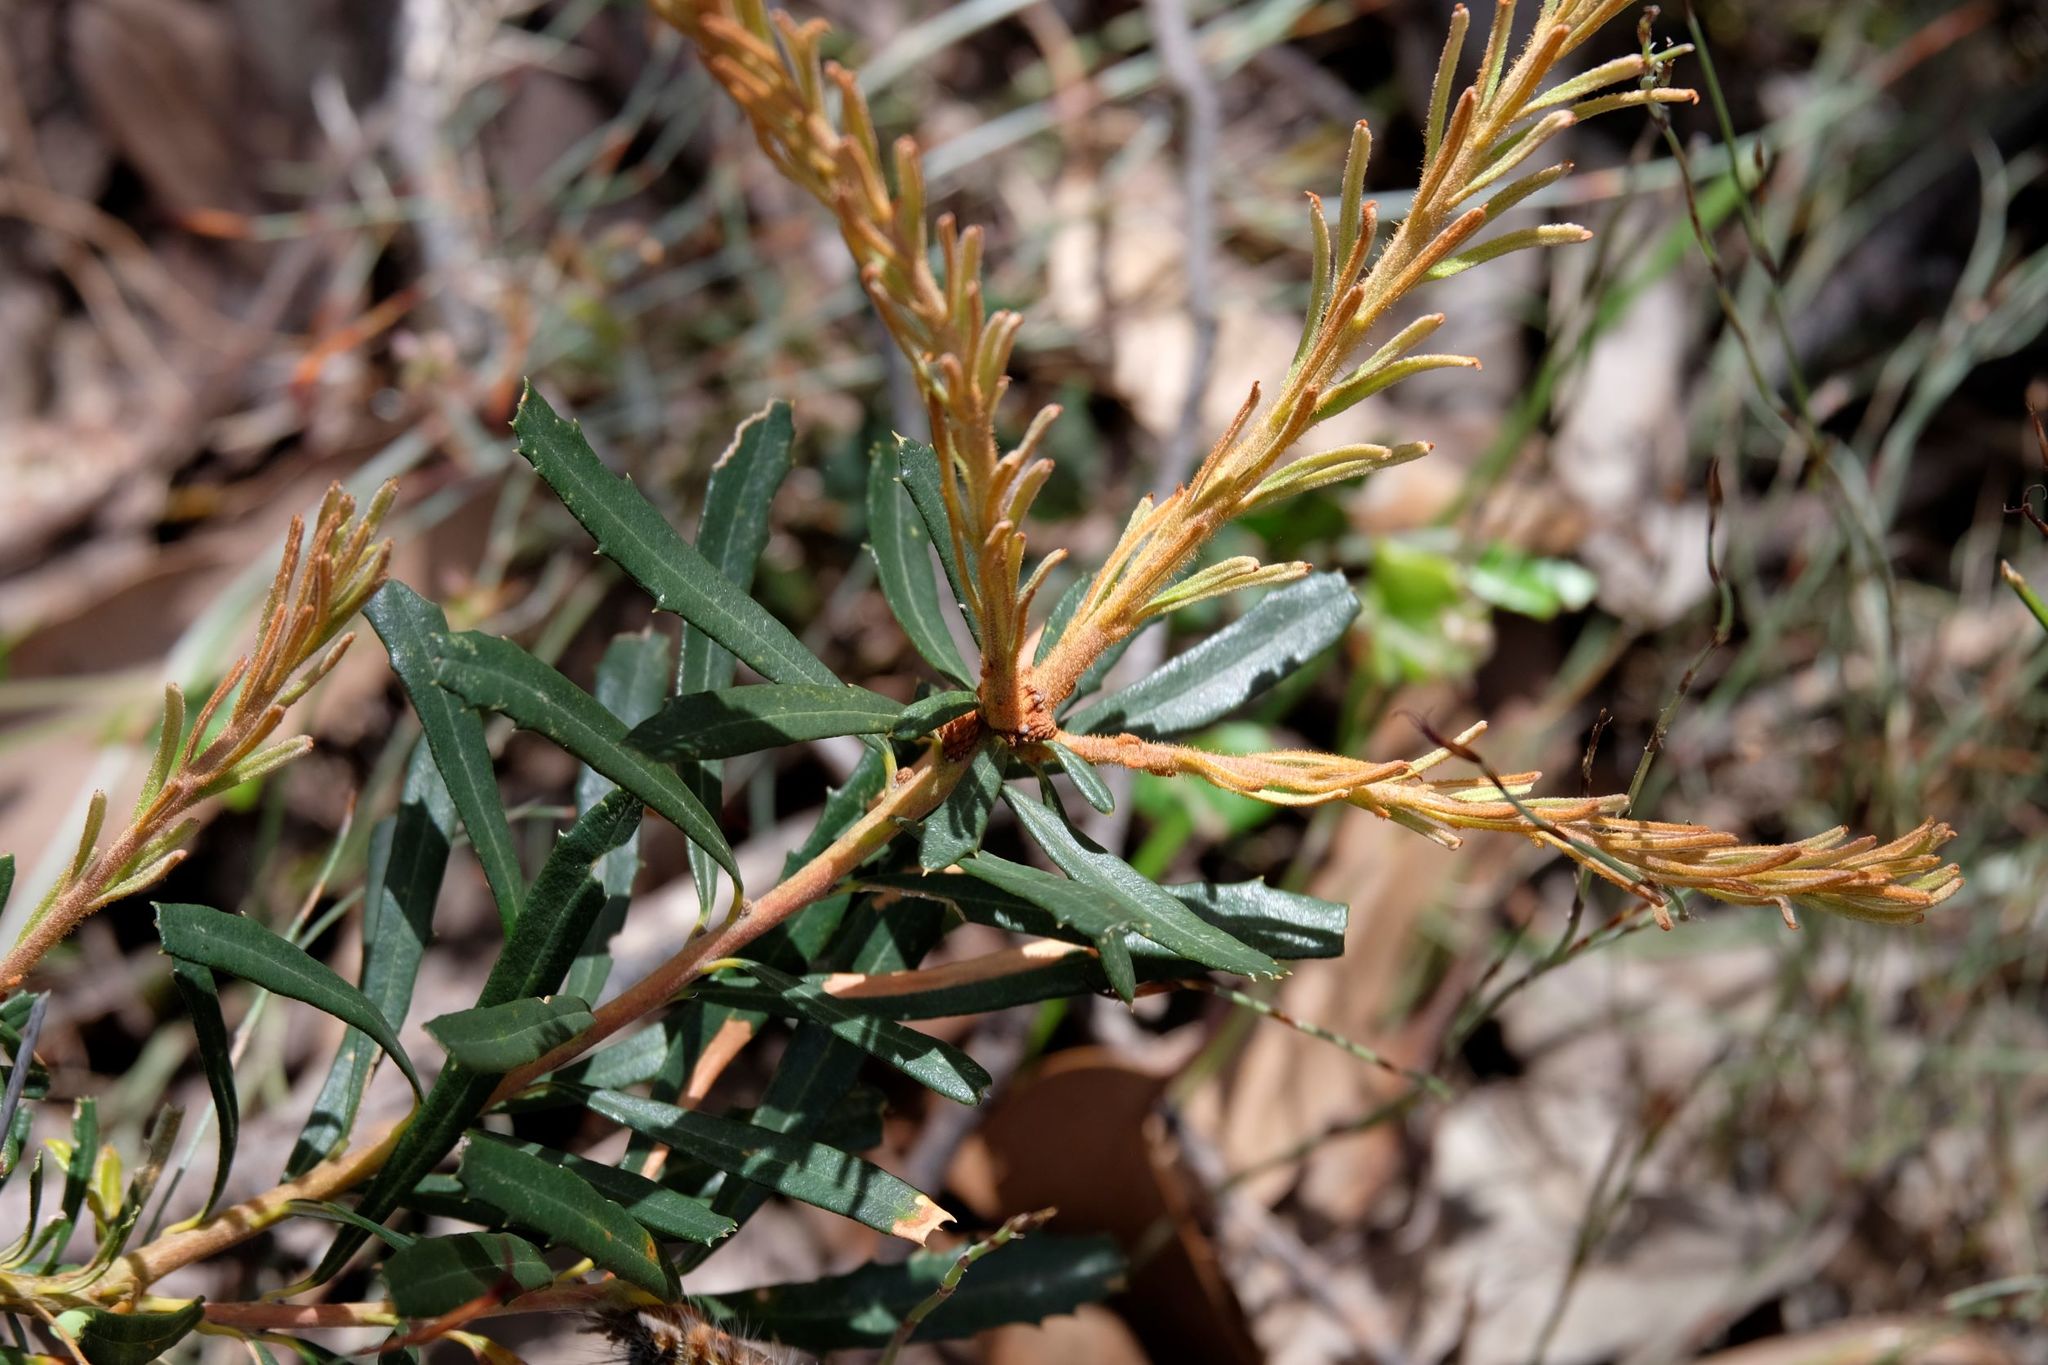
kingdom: Plantae
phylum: Tracheophyta
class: Magnoliopsida
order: Proteales
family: Proteaceae
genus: Banksia
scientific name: Banksia marginata
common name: Silver banksia
